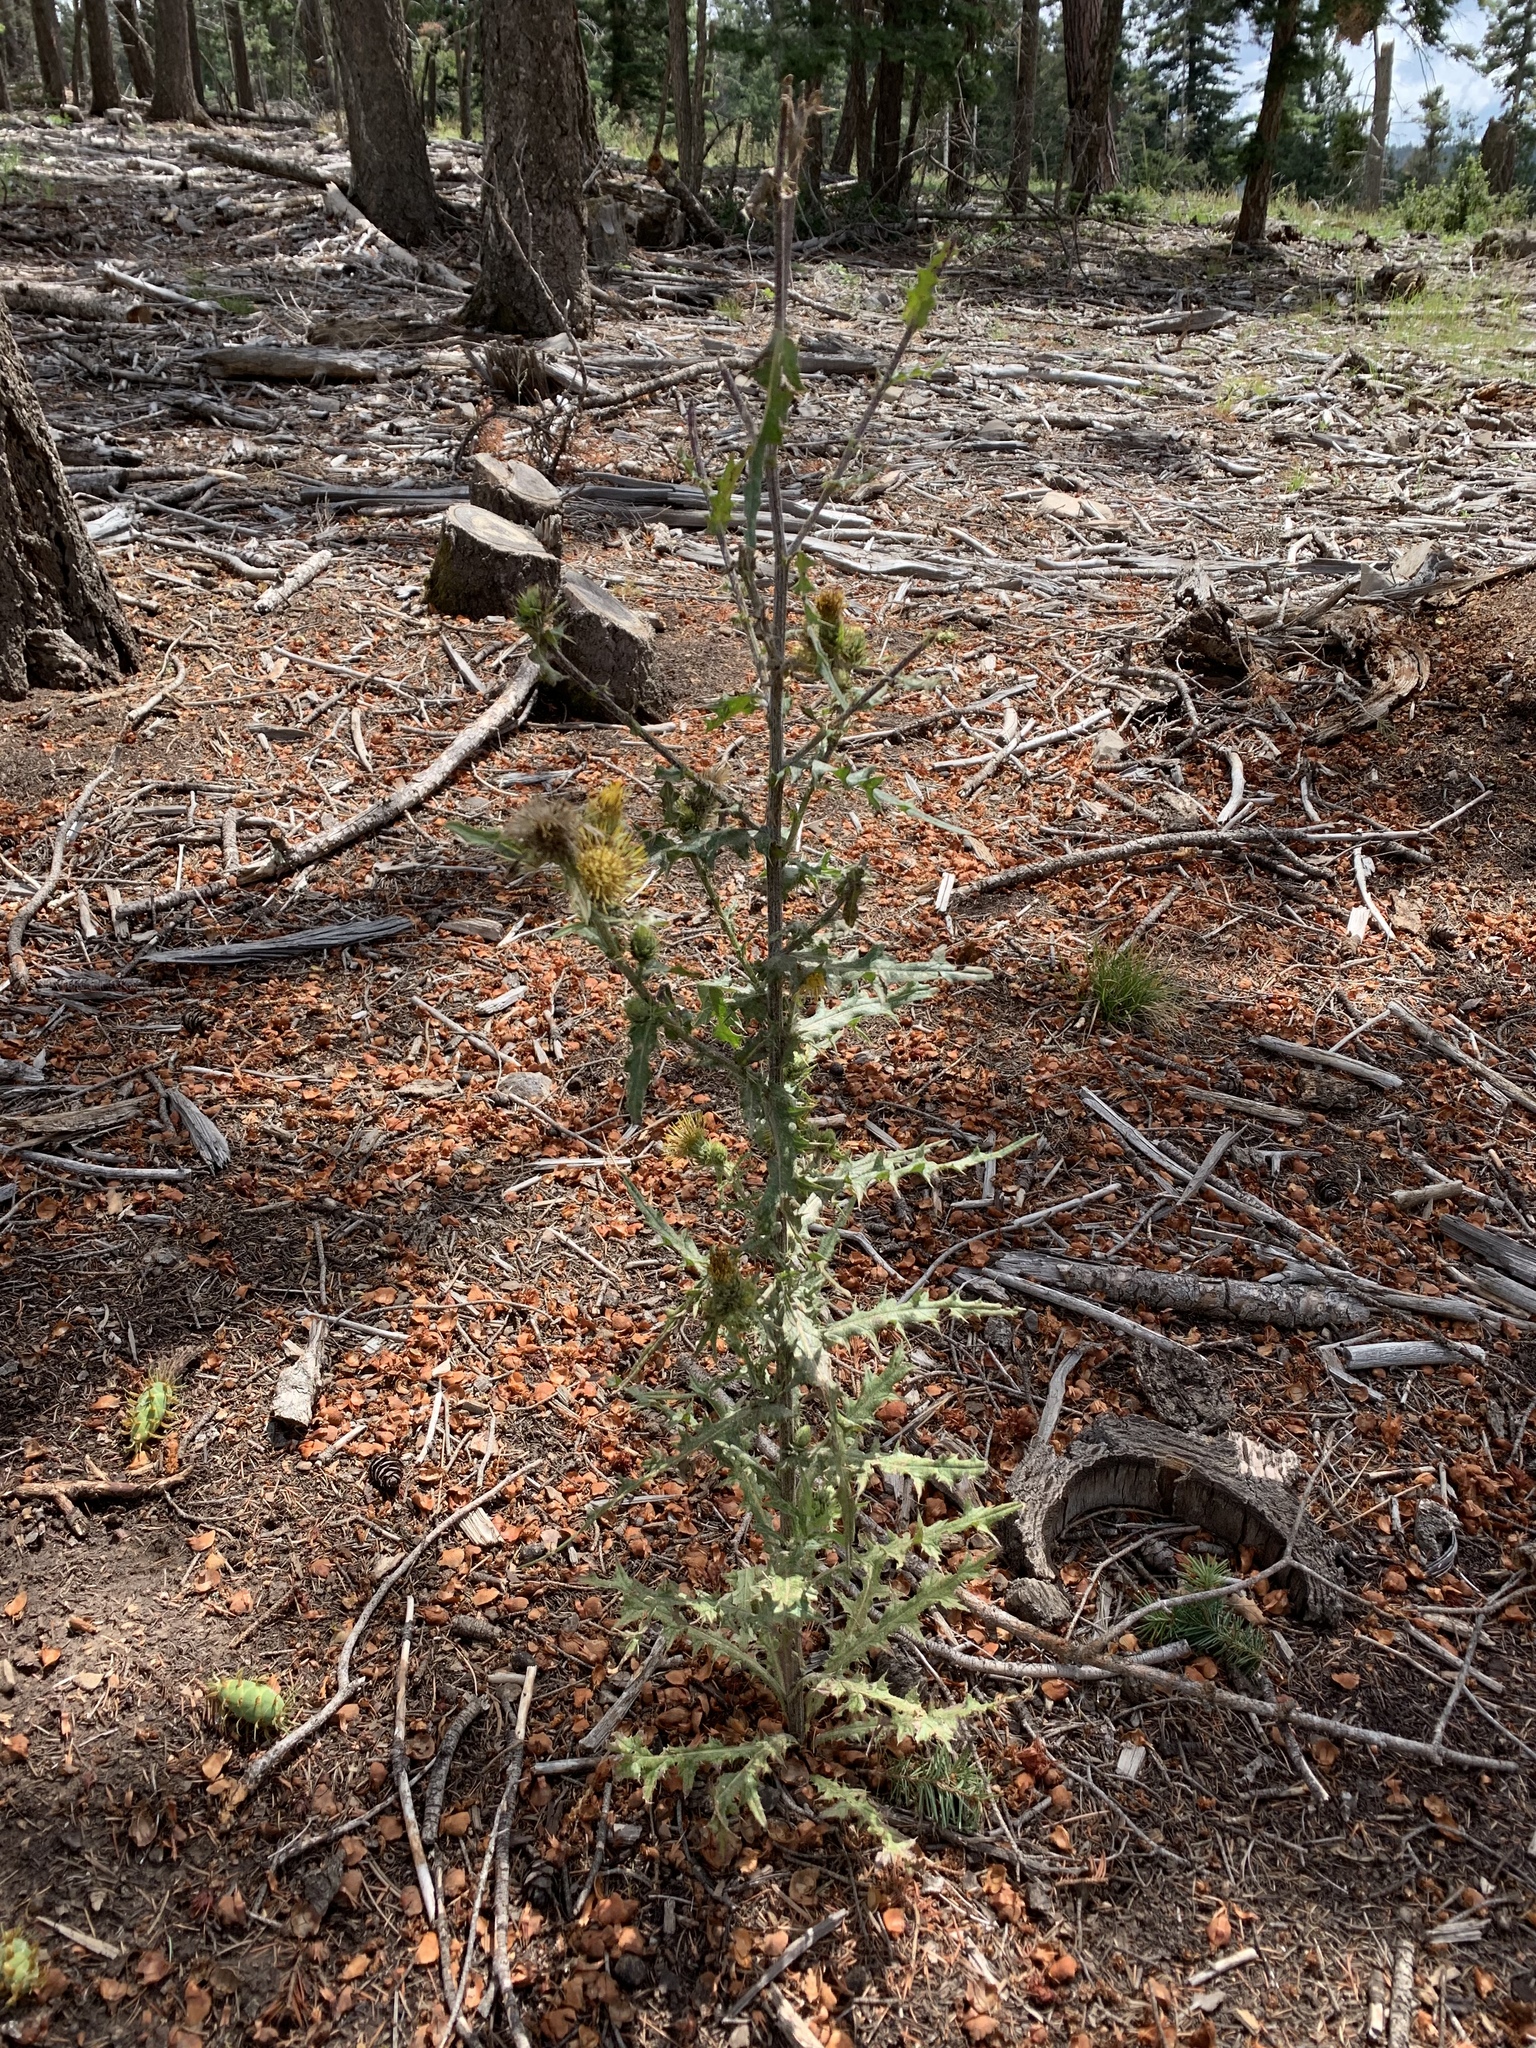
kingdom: Plantae
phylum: Tracheophyta
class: Magnoliopsida
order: Asterales
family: Asteraceae
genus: Cirsium
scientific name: Cirsium parryi
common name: Parry's thistle
